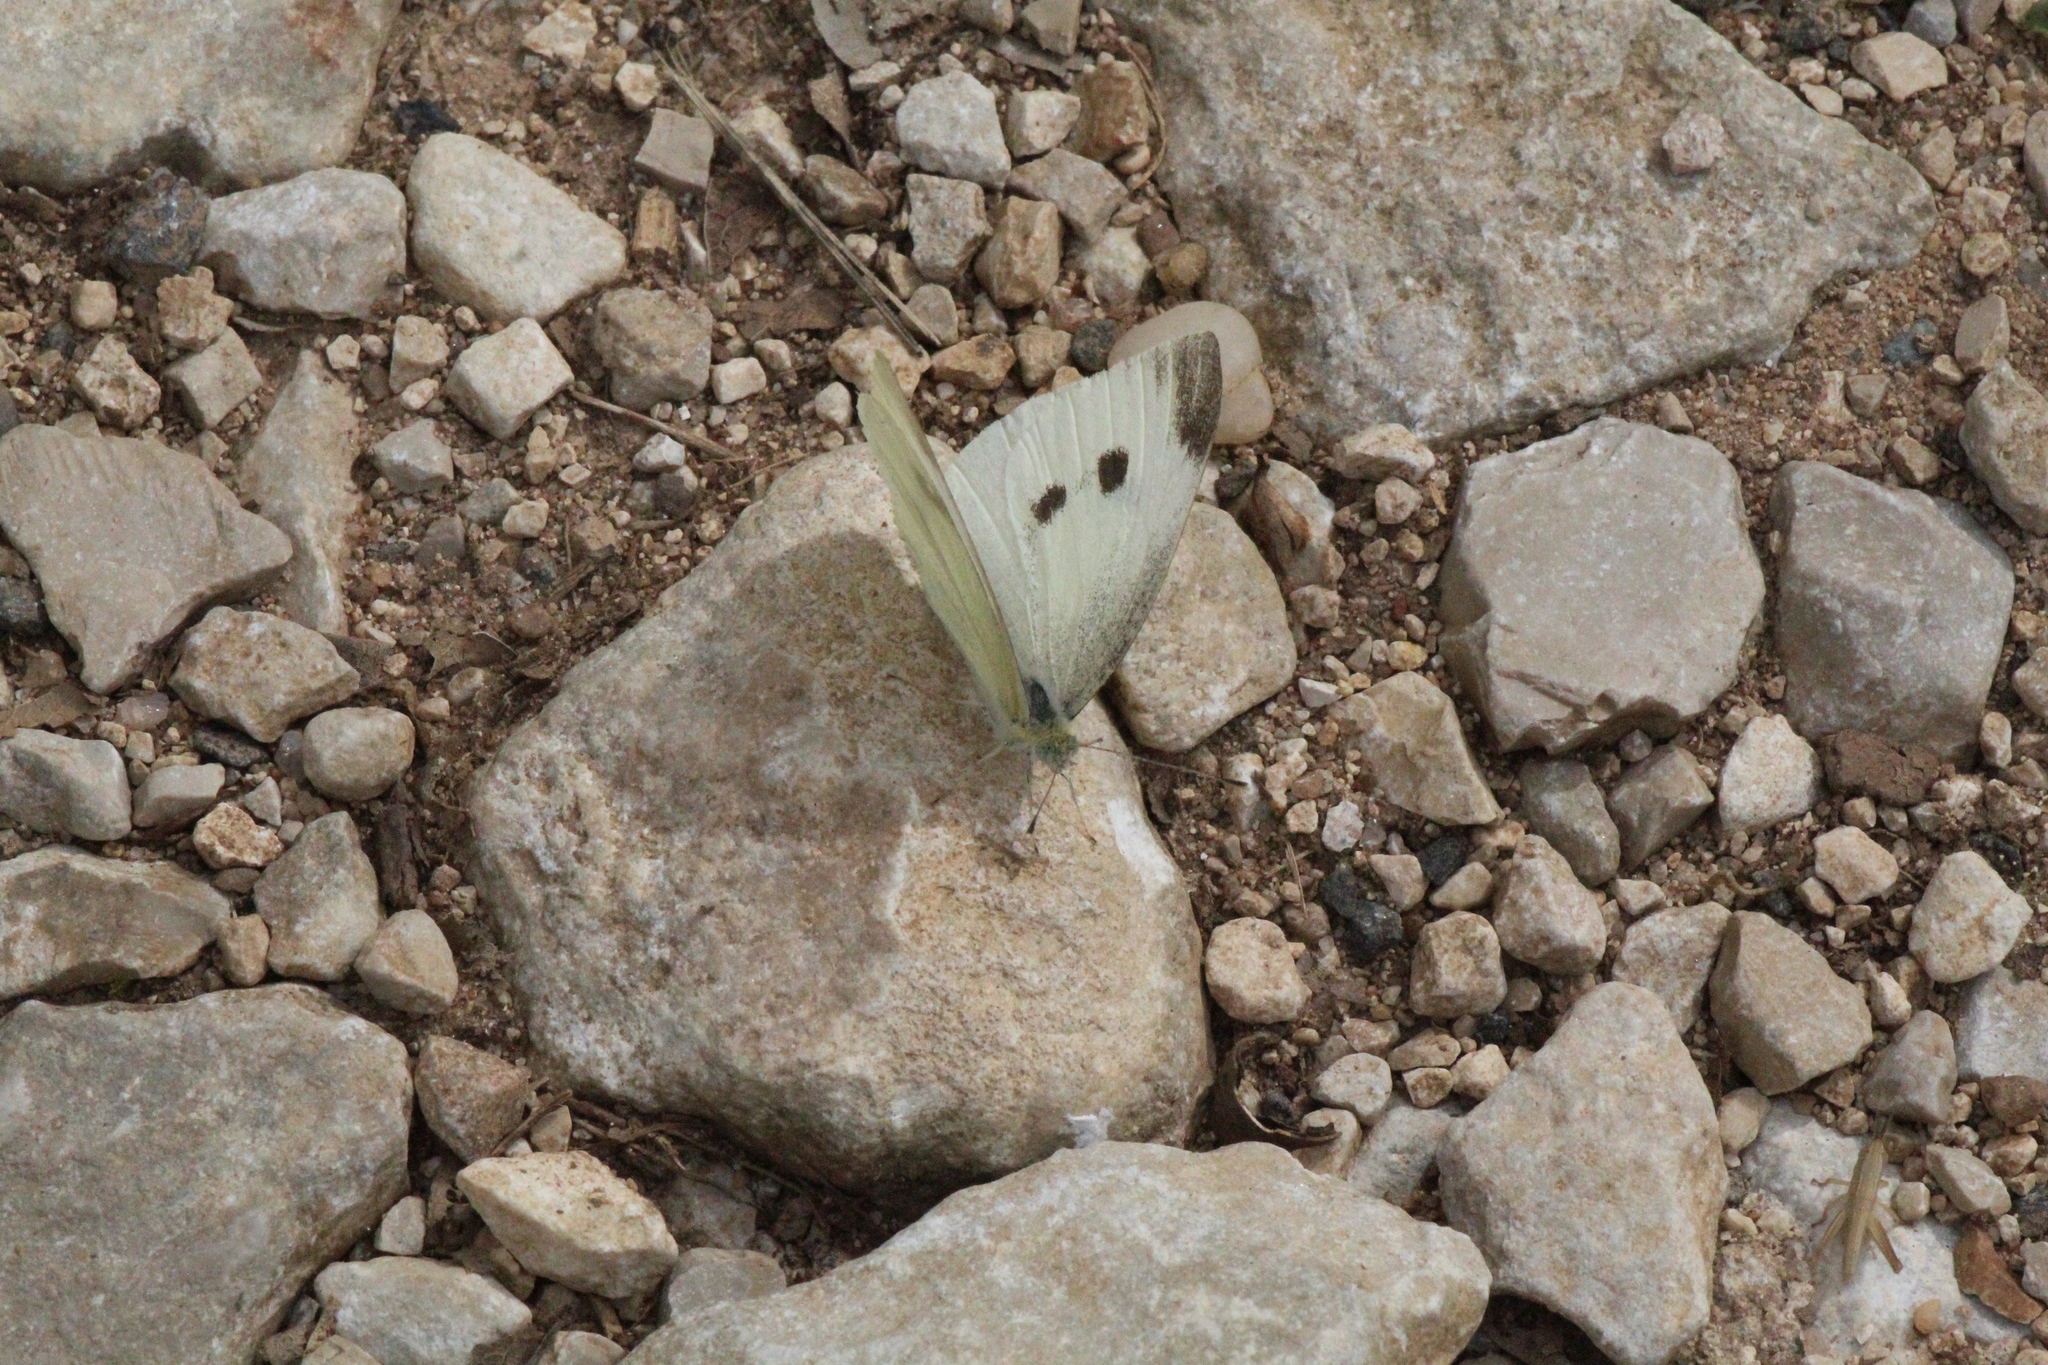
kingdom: Animalia
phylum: Arthropoda
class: Insecta
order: Lepidoptera
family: Pieridae
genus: Pieris
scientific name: Pieris rapae
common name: Small white
